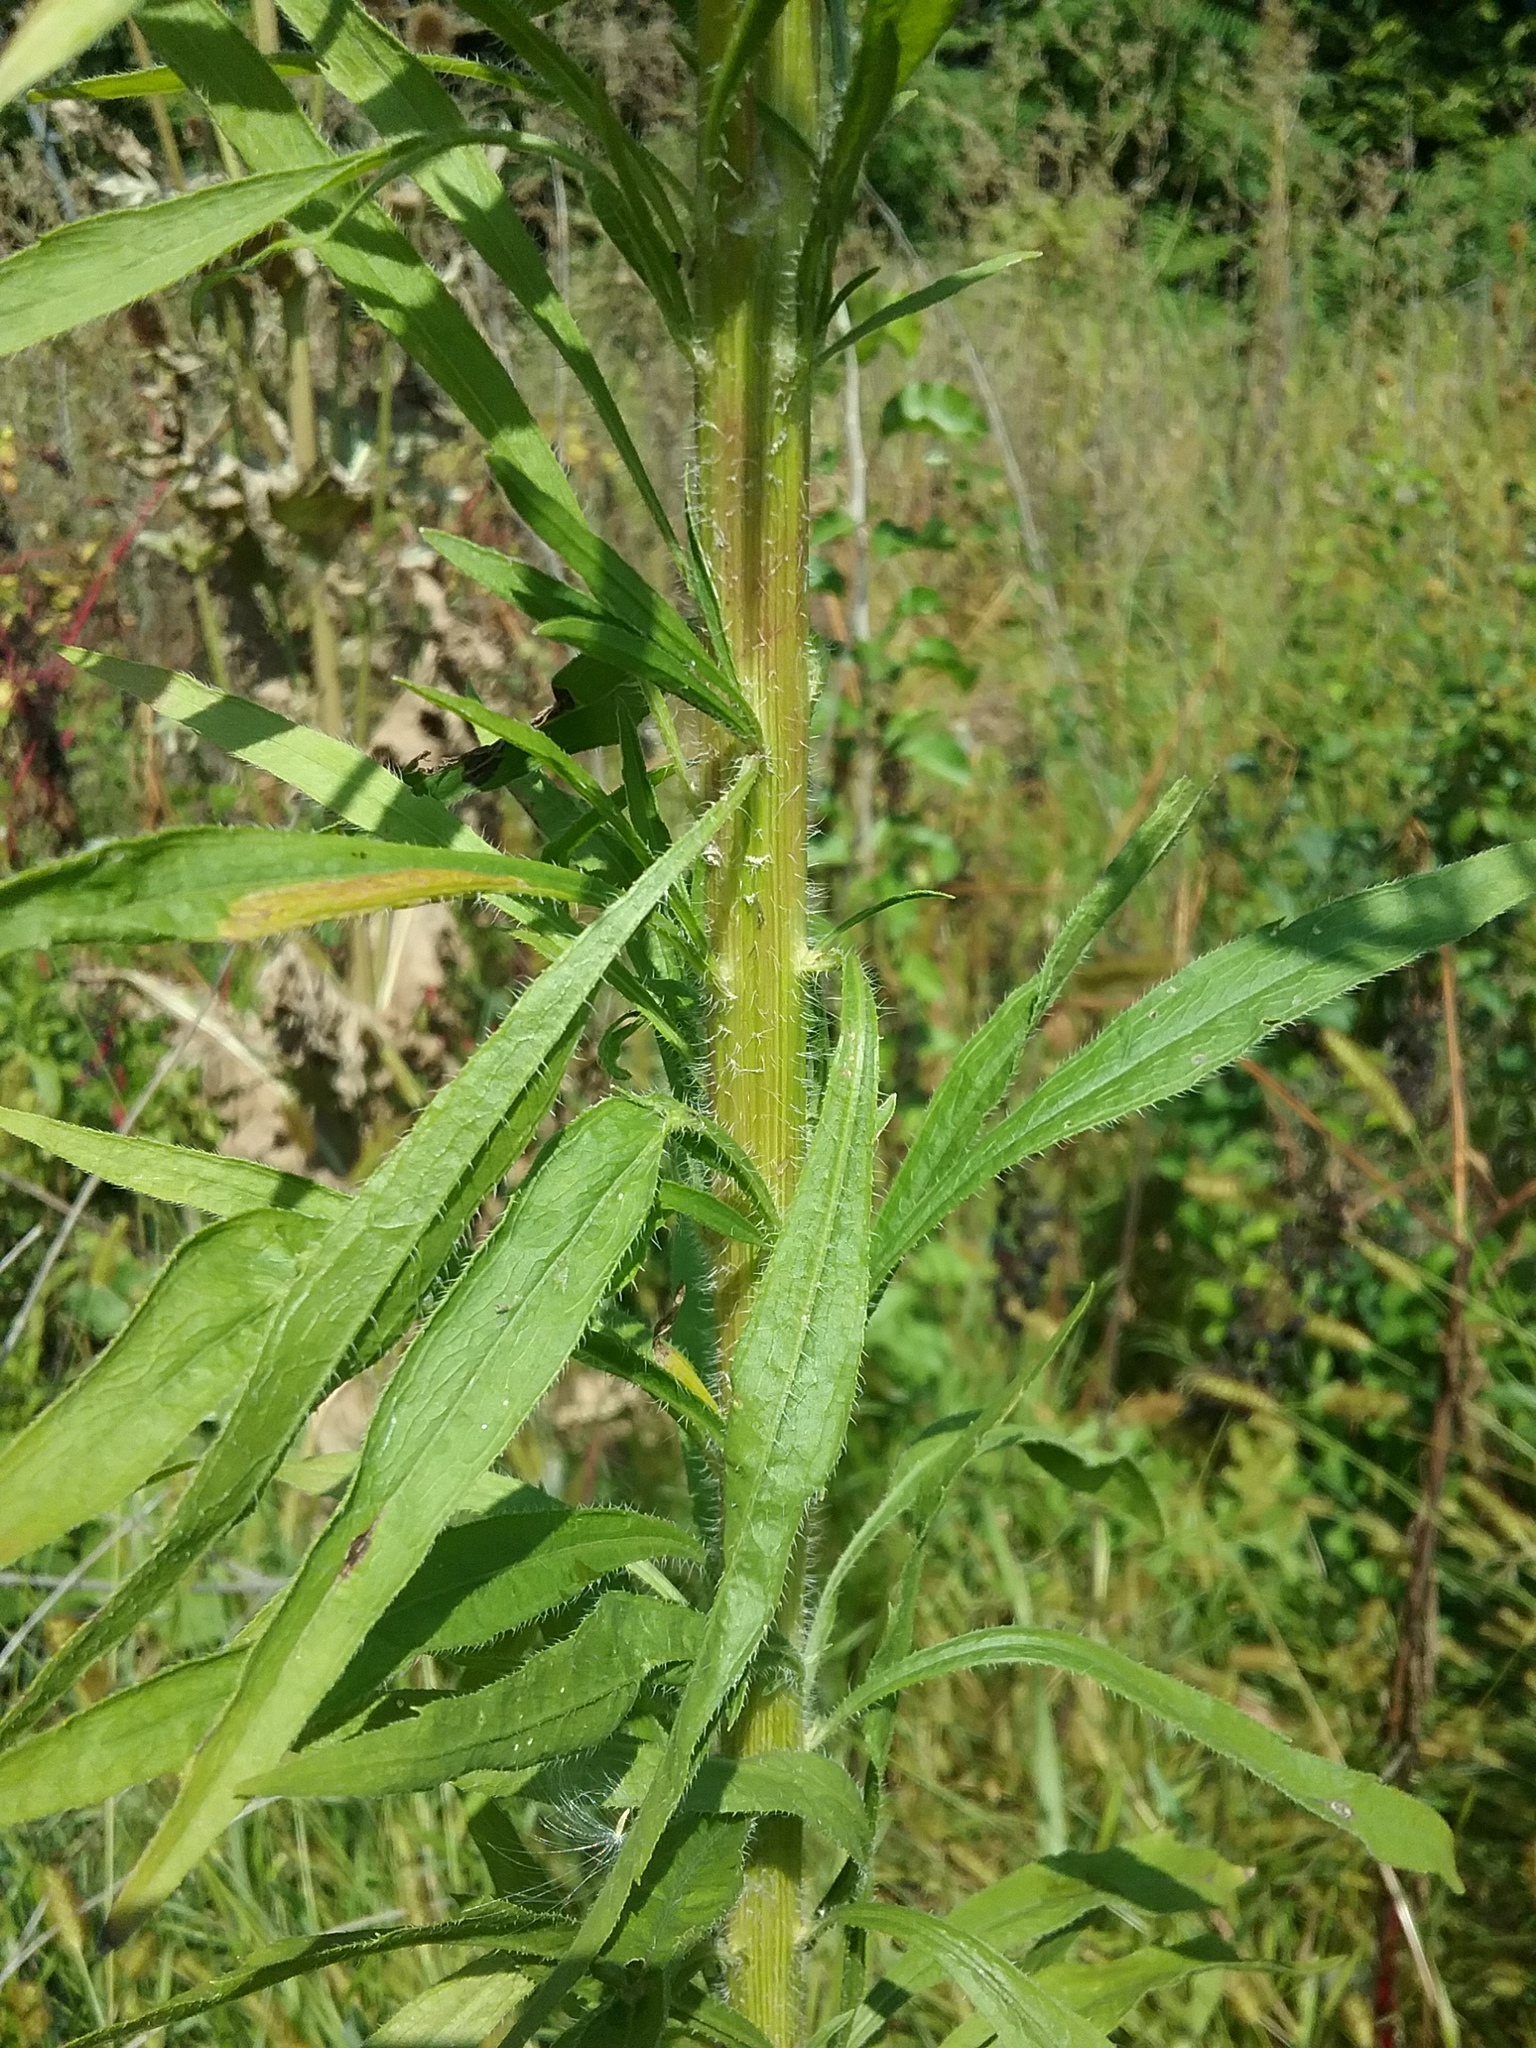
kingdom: Plantae
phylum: Tracheophyta
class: Magnoliopsida
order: Asterales
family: Asteraceae
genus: Erigeron
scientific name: Erigeron canadensis
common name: Canadian fleabane
